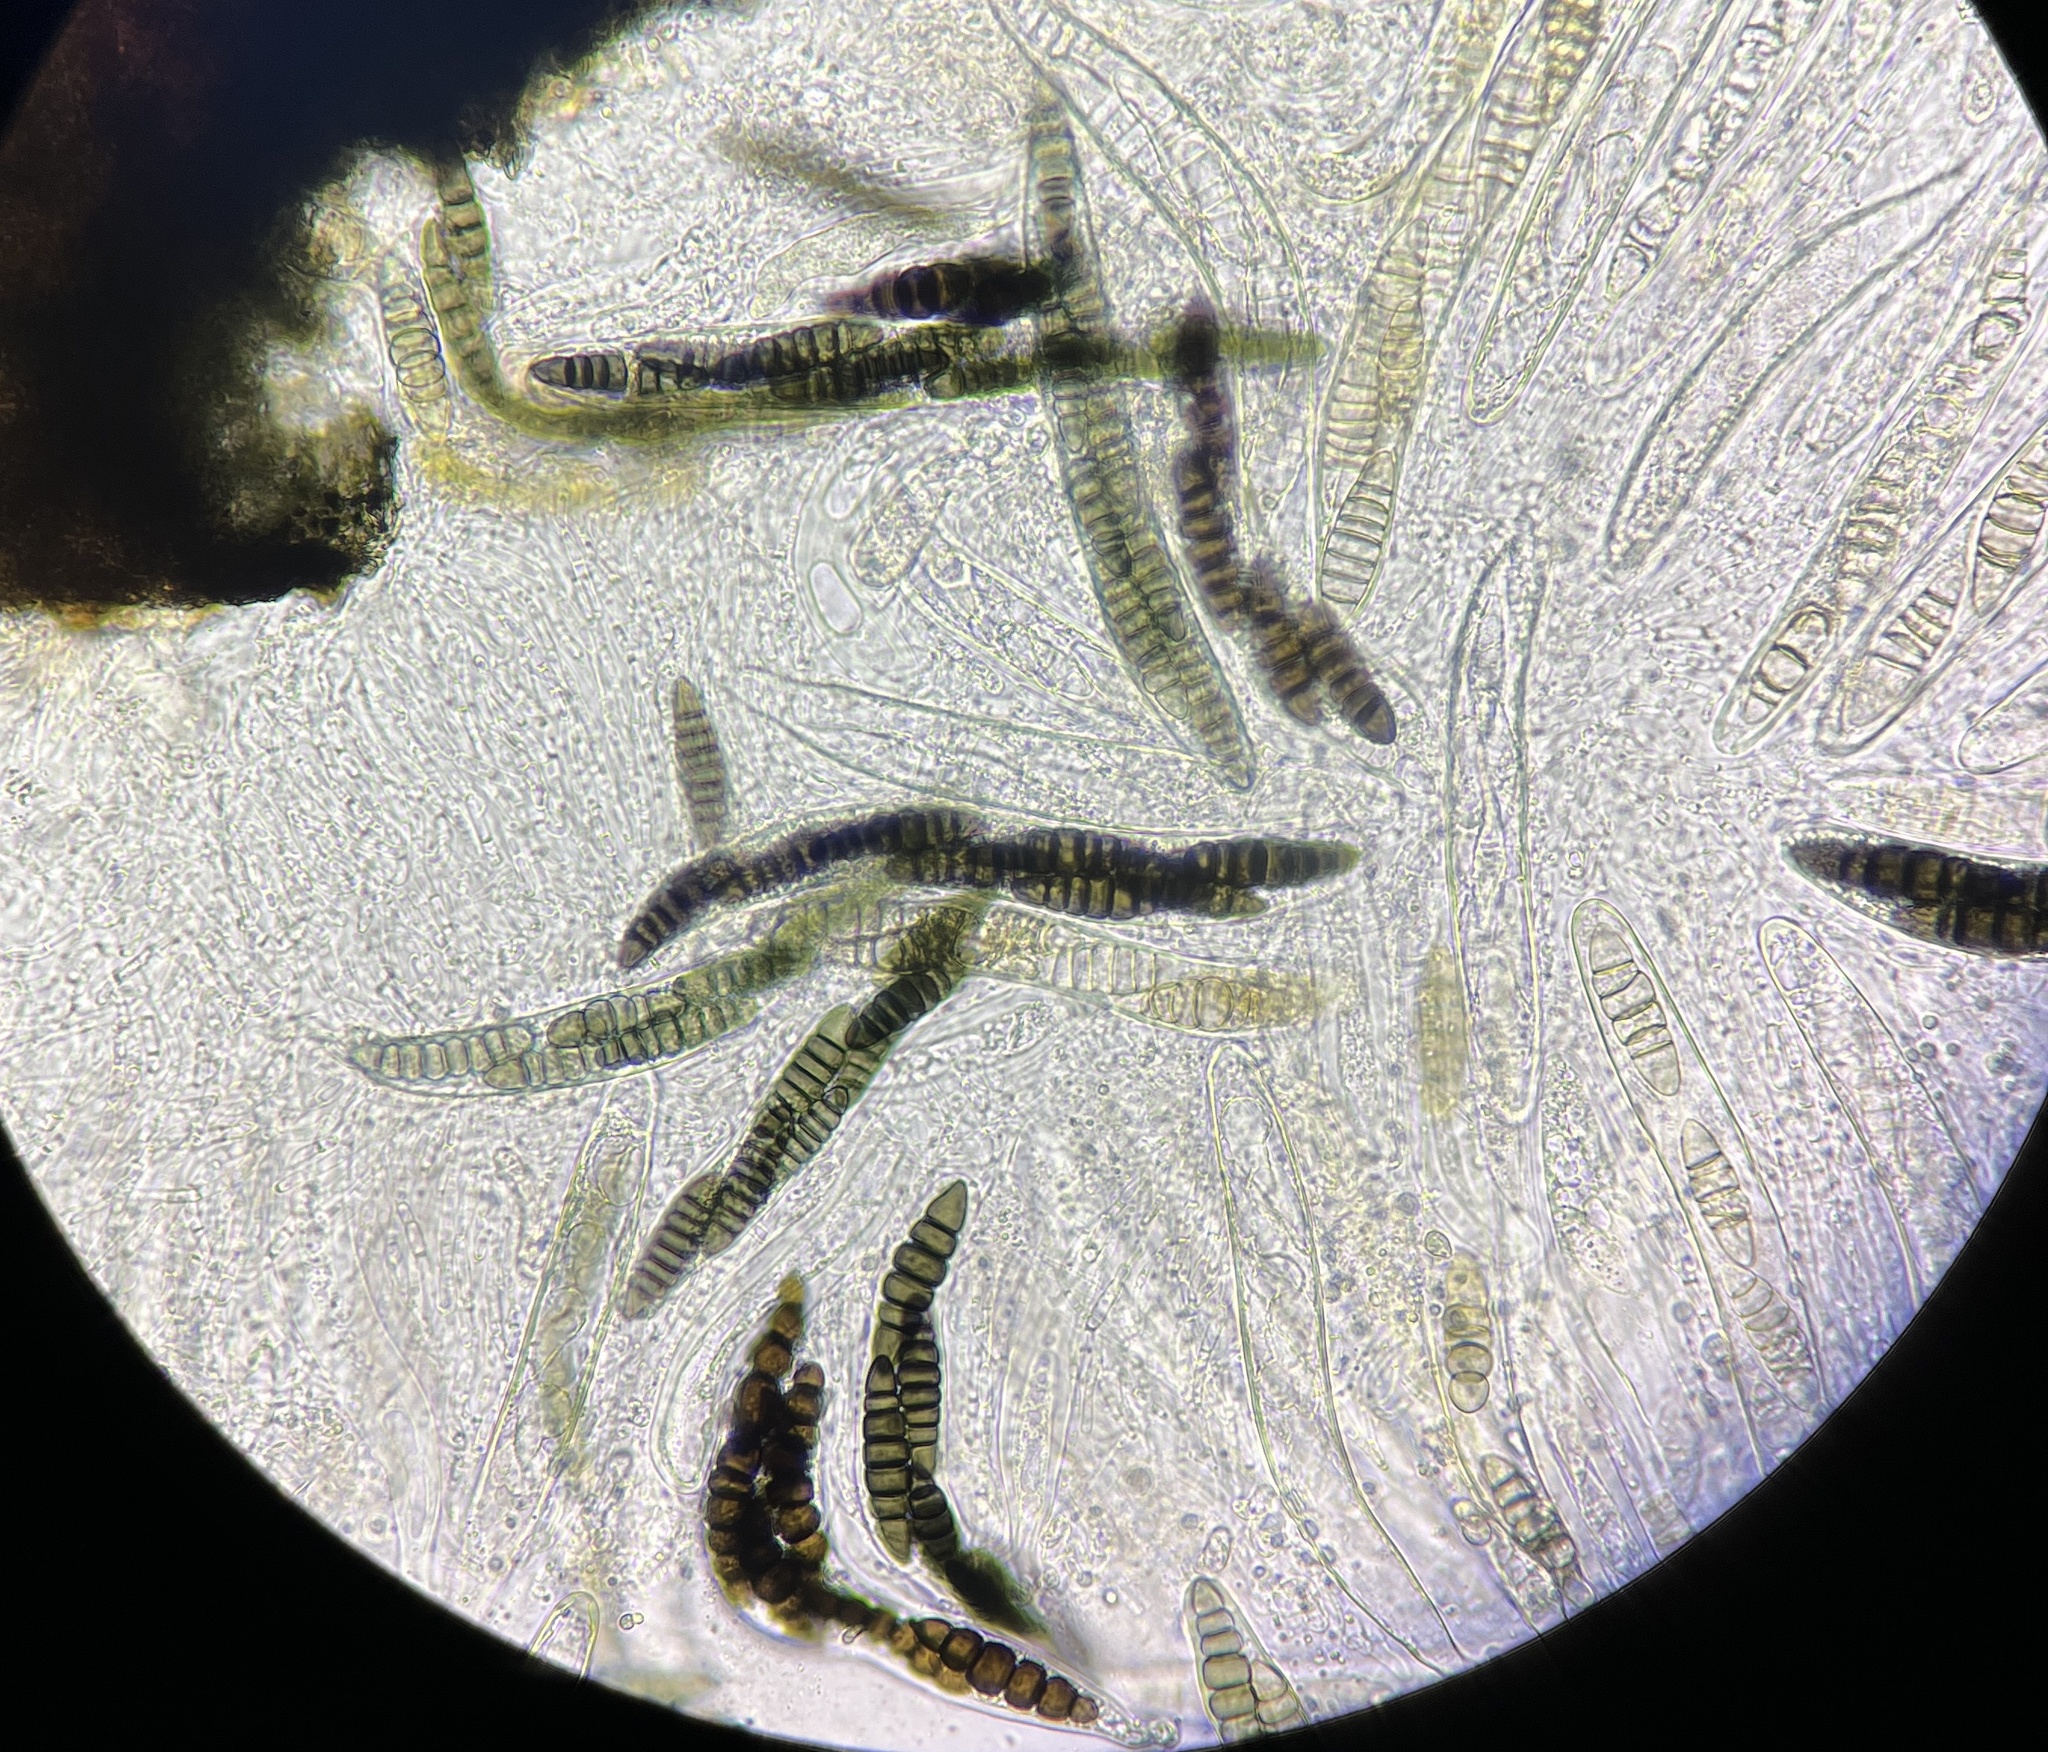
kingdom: Fungi
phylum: Ascomycota
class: Dothideomycetes
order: Pleosporales
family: Sporormiaceae
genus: Sporormiella
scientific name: Sporormiella octonalis
